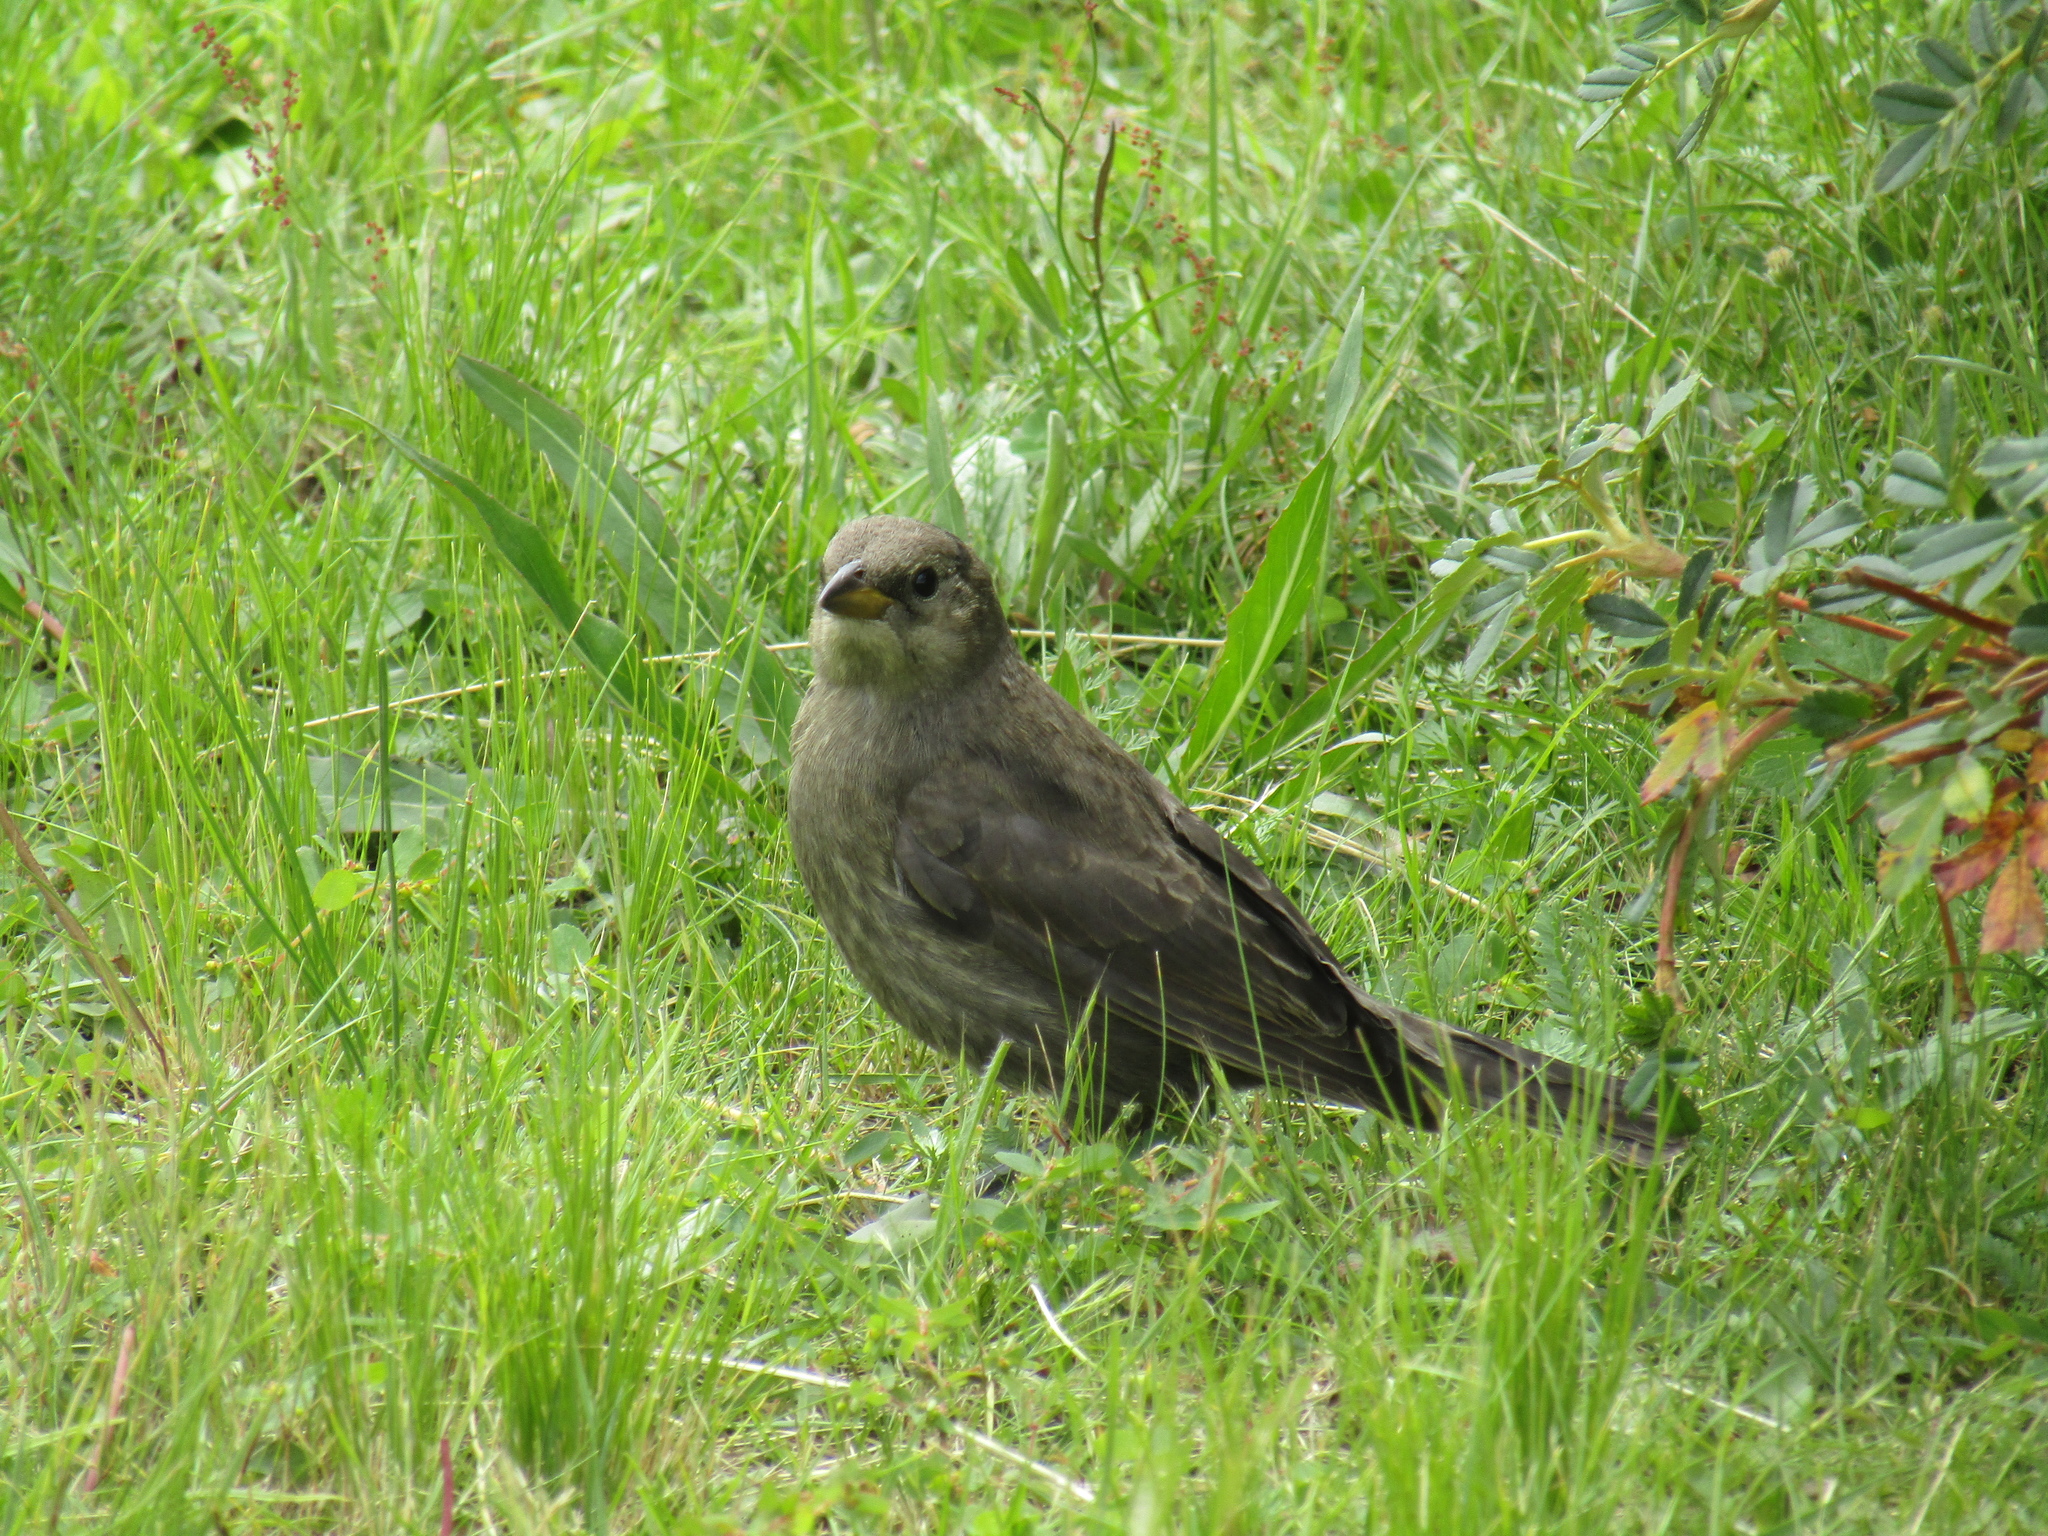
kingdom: Animalia
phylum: Chordata
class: Aves
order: Passeriformes
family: Icteridae
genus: Molothrus
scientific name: Molothrus bonariensis
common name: Shiny cowbird
